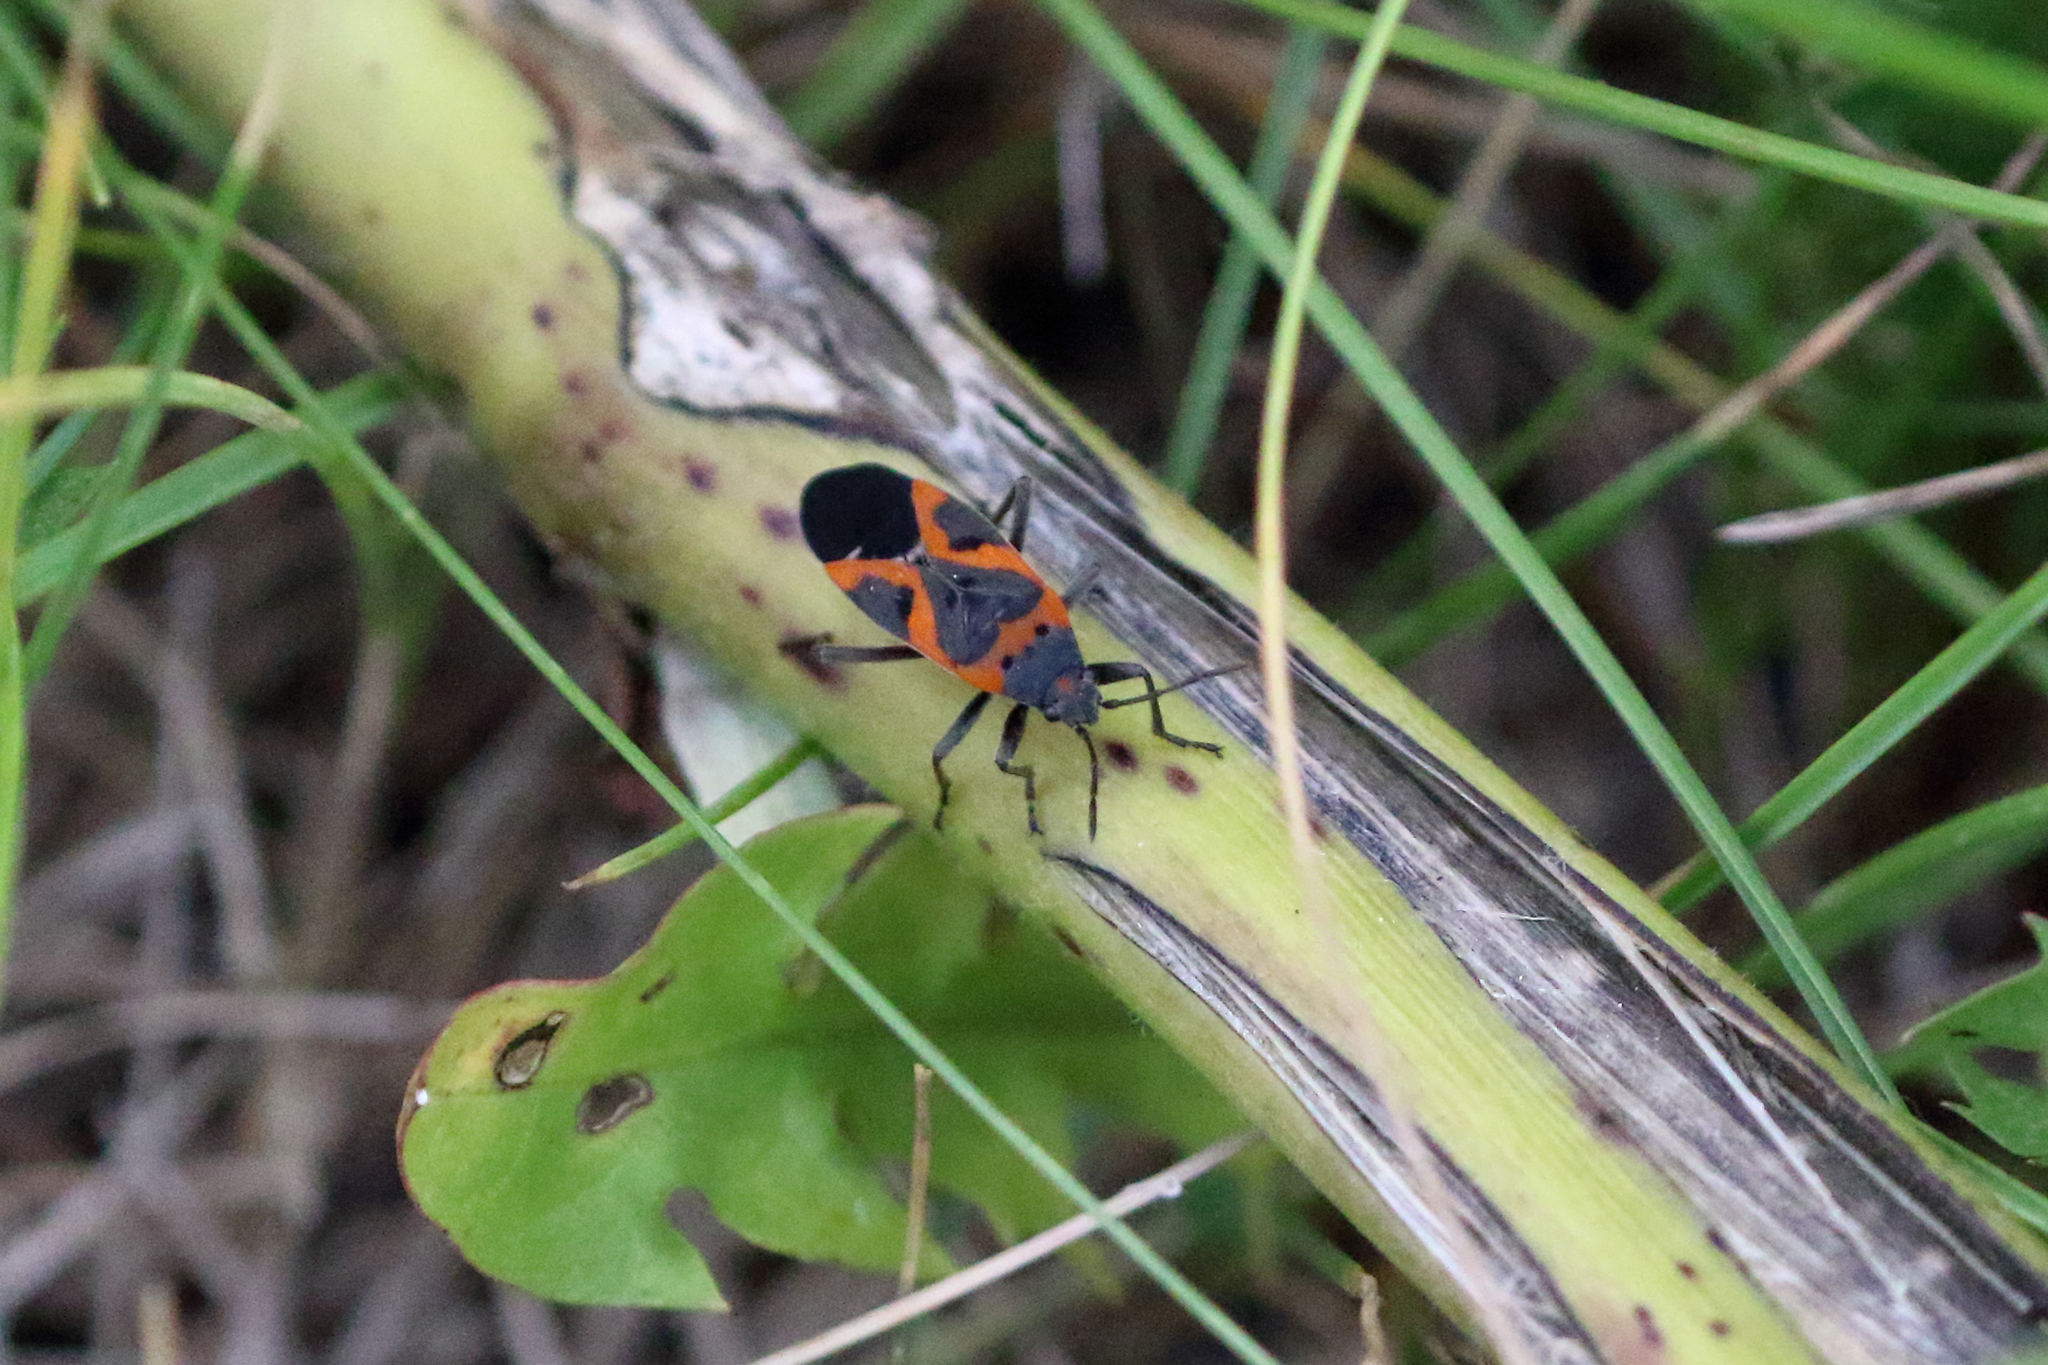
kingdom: Animalia
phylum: Arthropoda
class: Insecta
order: Hemiptera
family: Lygaeidae
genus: Lygaeus
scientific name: Lygaeus kalmii
